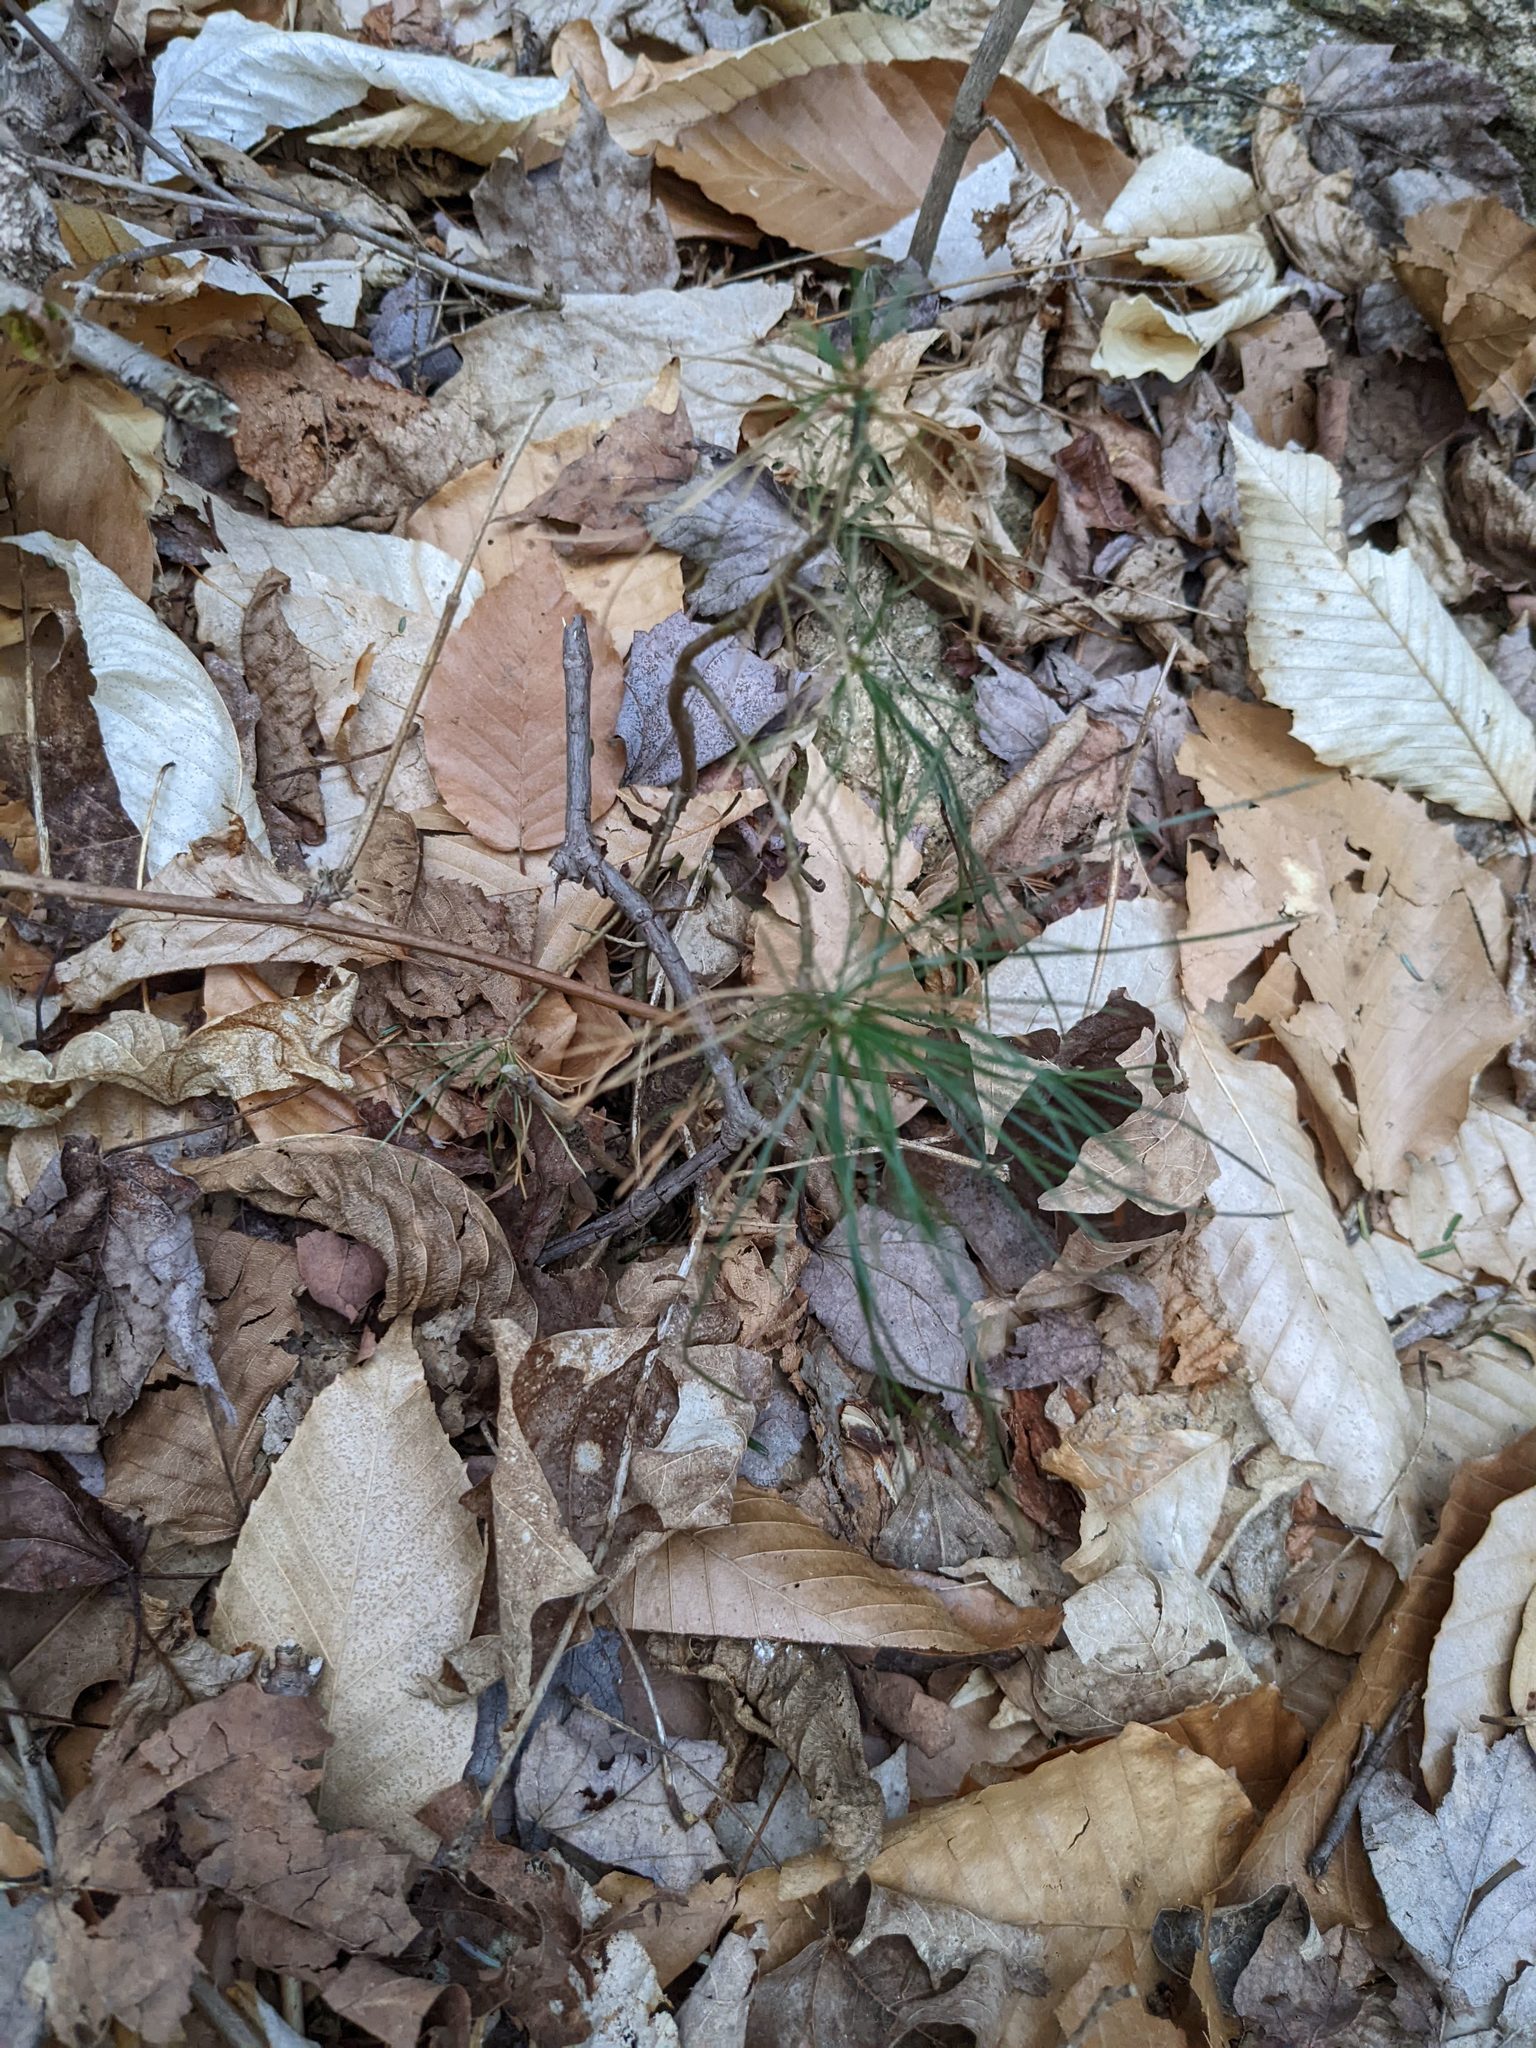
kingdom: Plantae
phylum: Tracheophyta
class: Pinopsida
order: Pinales
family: Pinaceae
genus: Pinus
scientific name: Pinus strobus
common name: Weymouth pine
